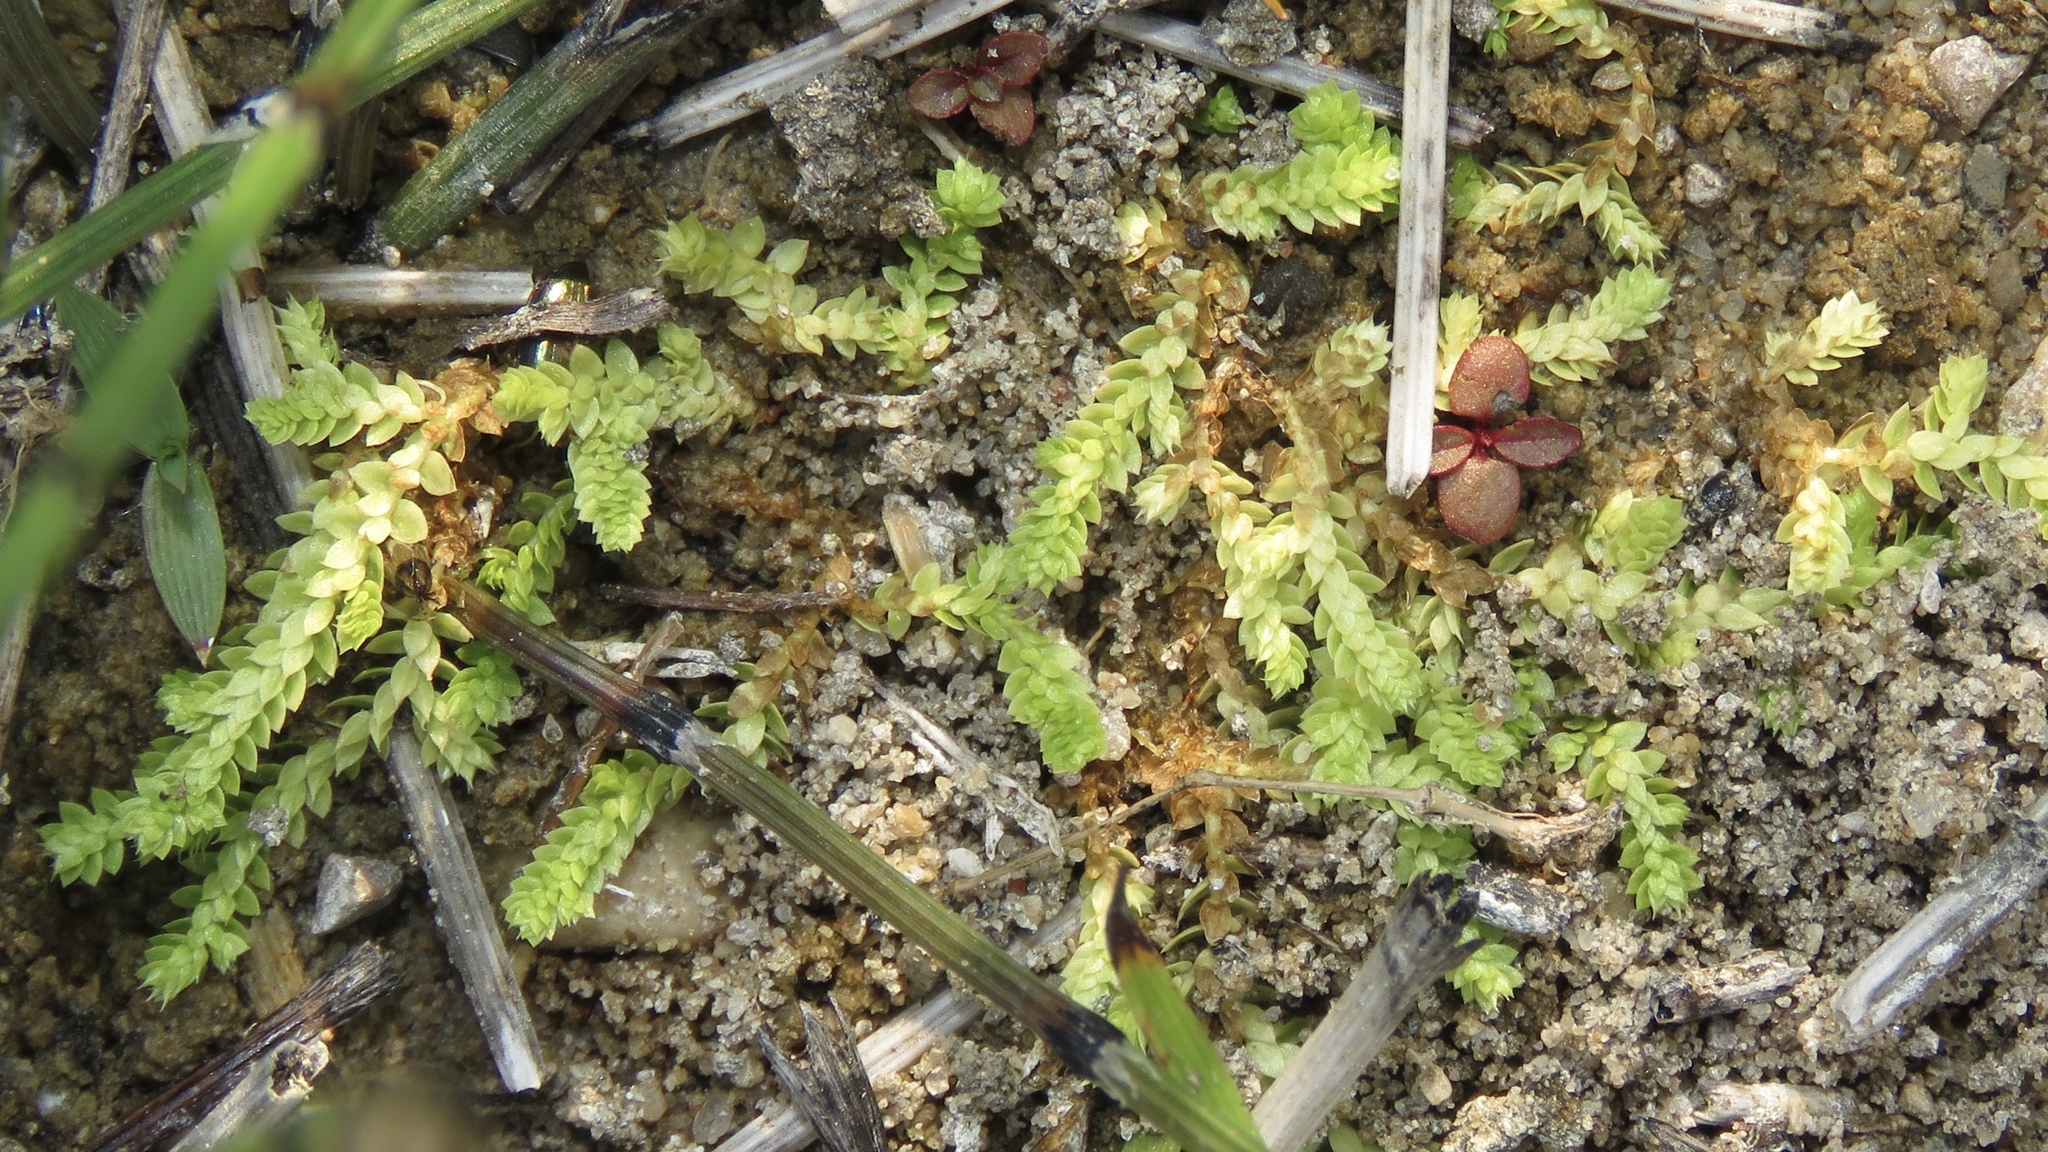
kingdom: Plantae
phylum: Tracheophyta
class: Lycopodiopsida
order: Selaginellales
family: Selaginellaceae
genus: Selaginella
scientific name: Selaginella eclipes
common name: Buck's meadow spikemoss
